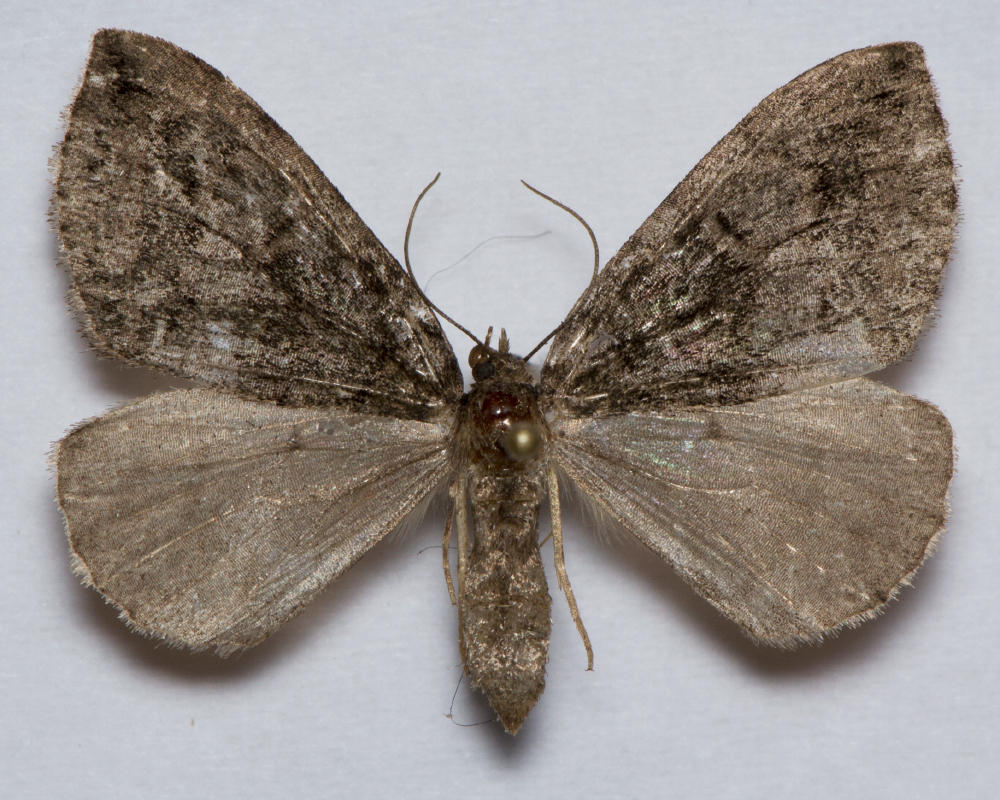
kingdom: Animalia
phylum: Arthropoda
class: Insecta
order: Lepidoptera
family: Geometridae
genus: Hydriomena
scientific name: Hydriomena furcata
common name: July highflyer
